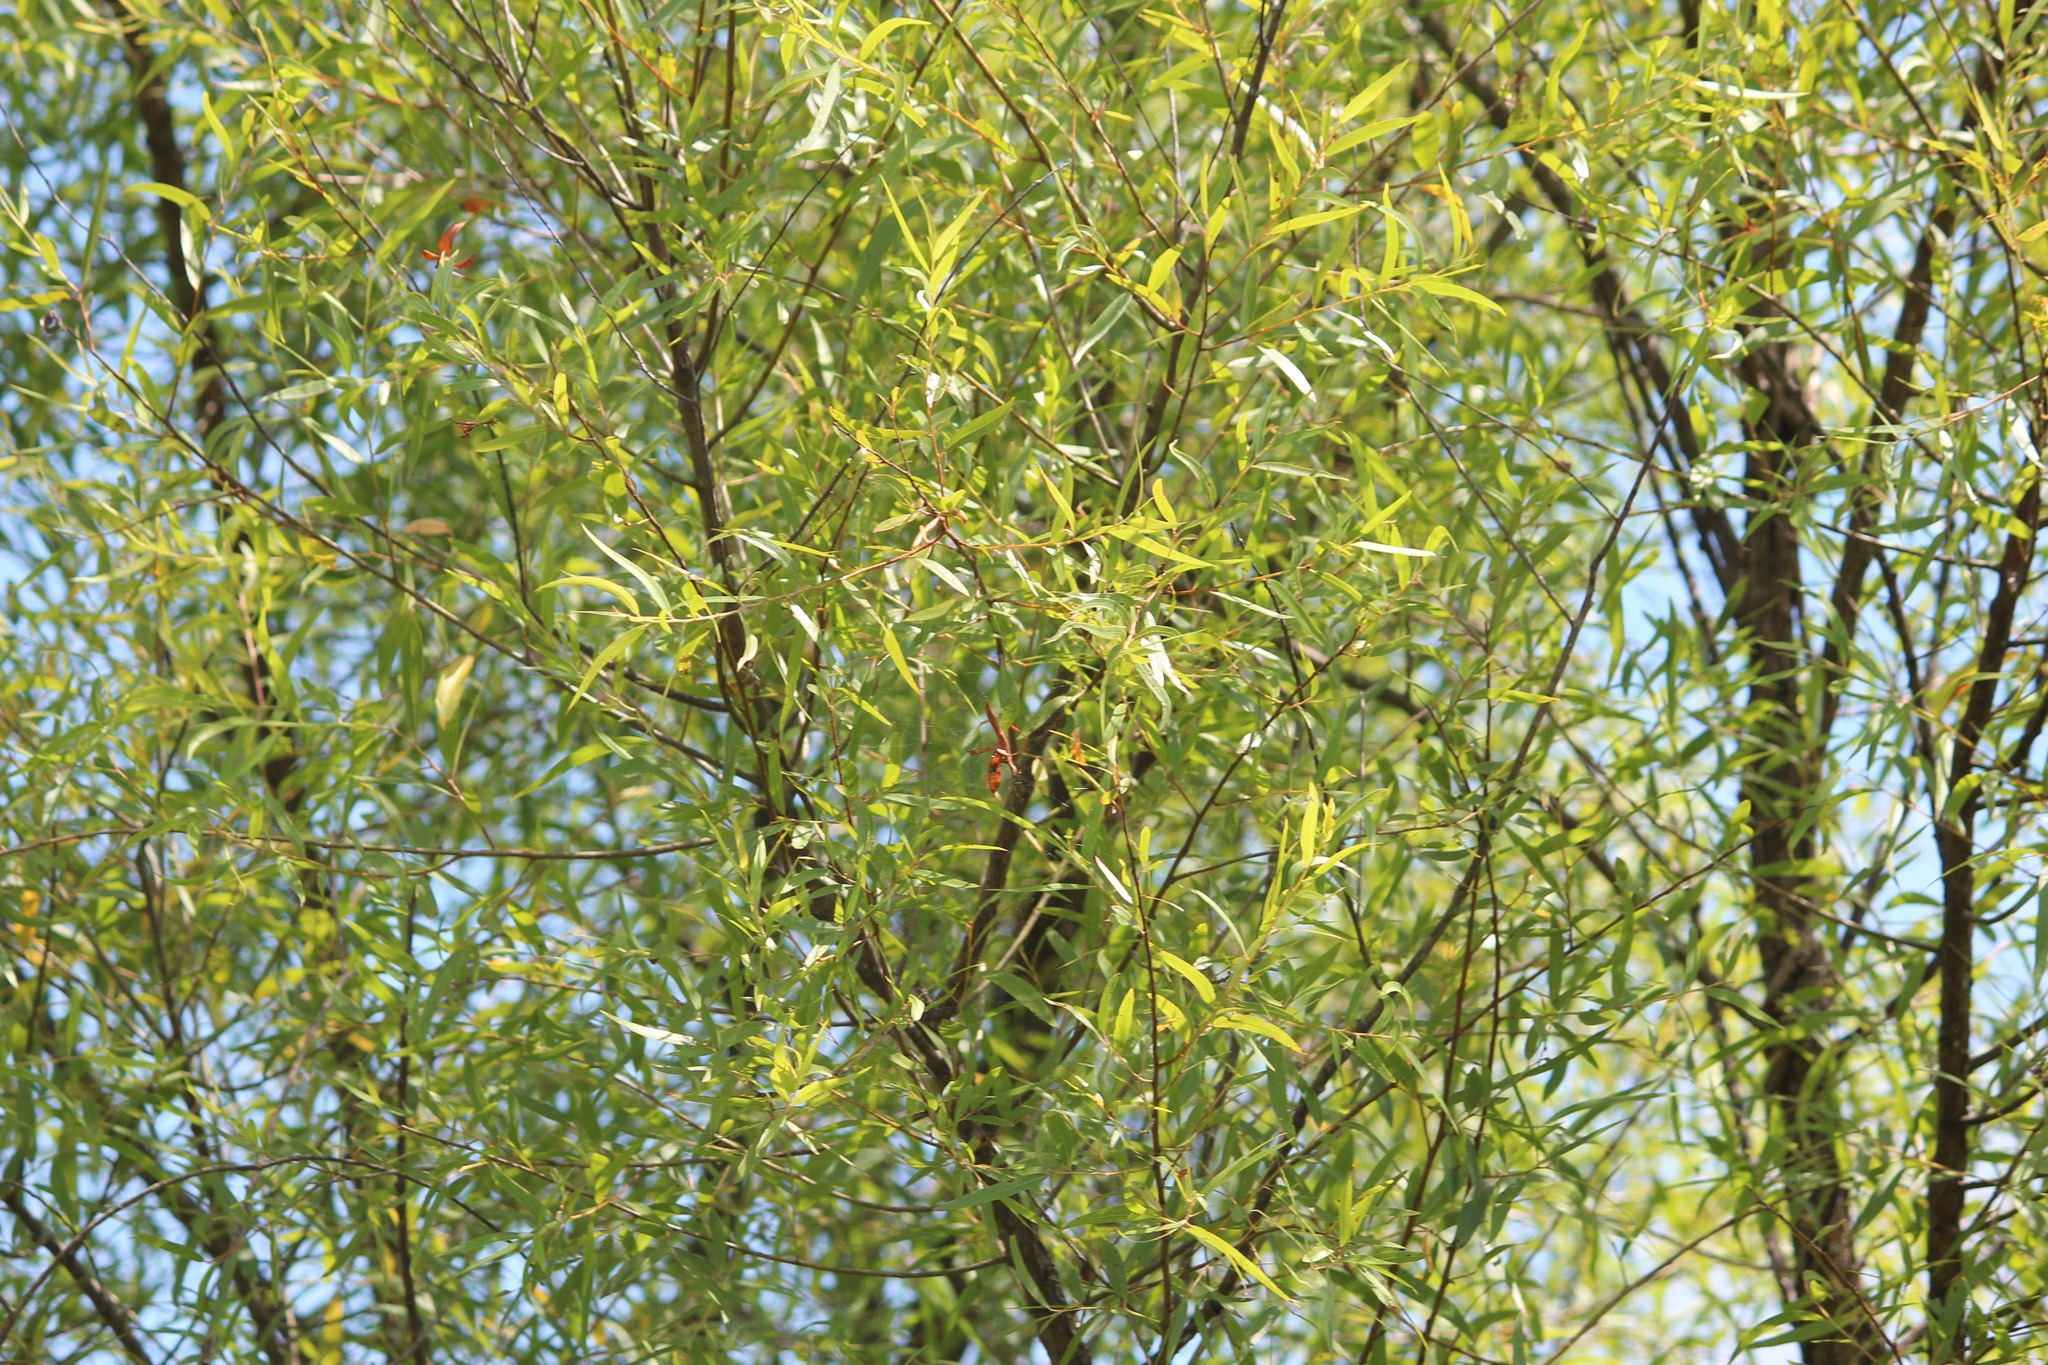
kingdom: Plantae
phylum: Tracheophyta
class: Magnoliopsida
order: Fagales
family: Fagaceae
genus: Quercus
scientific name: Quercus phellos
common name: Willow oak
